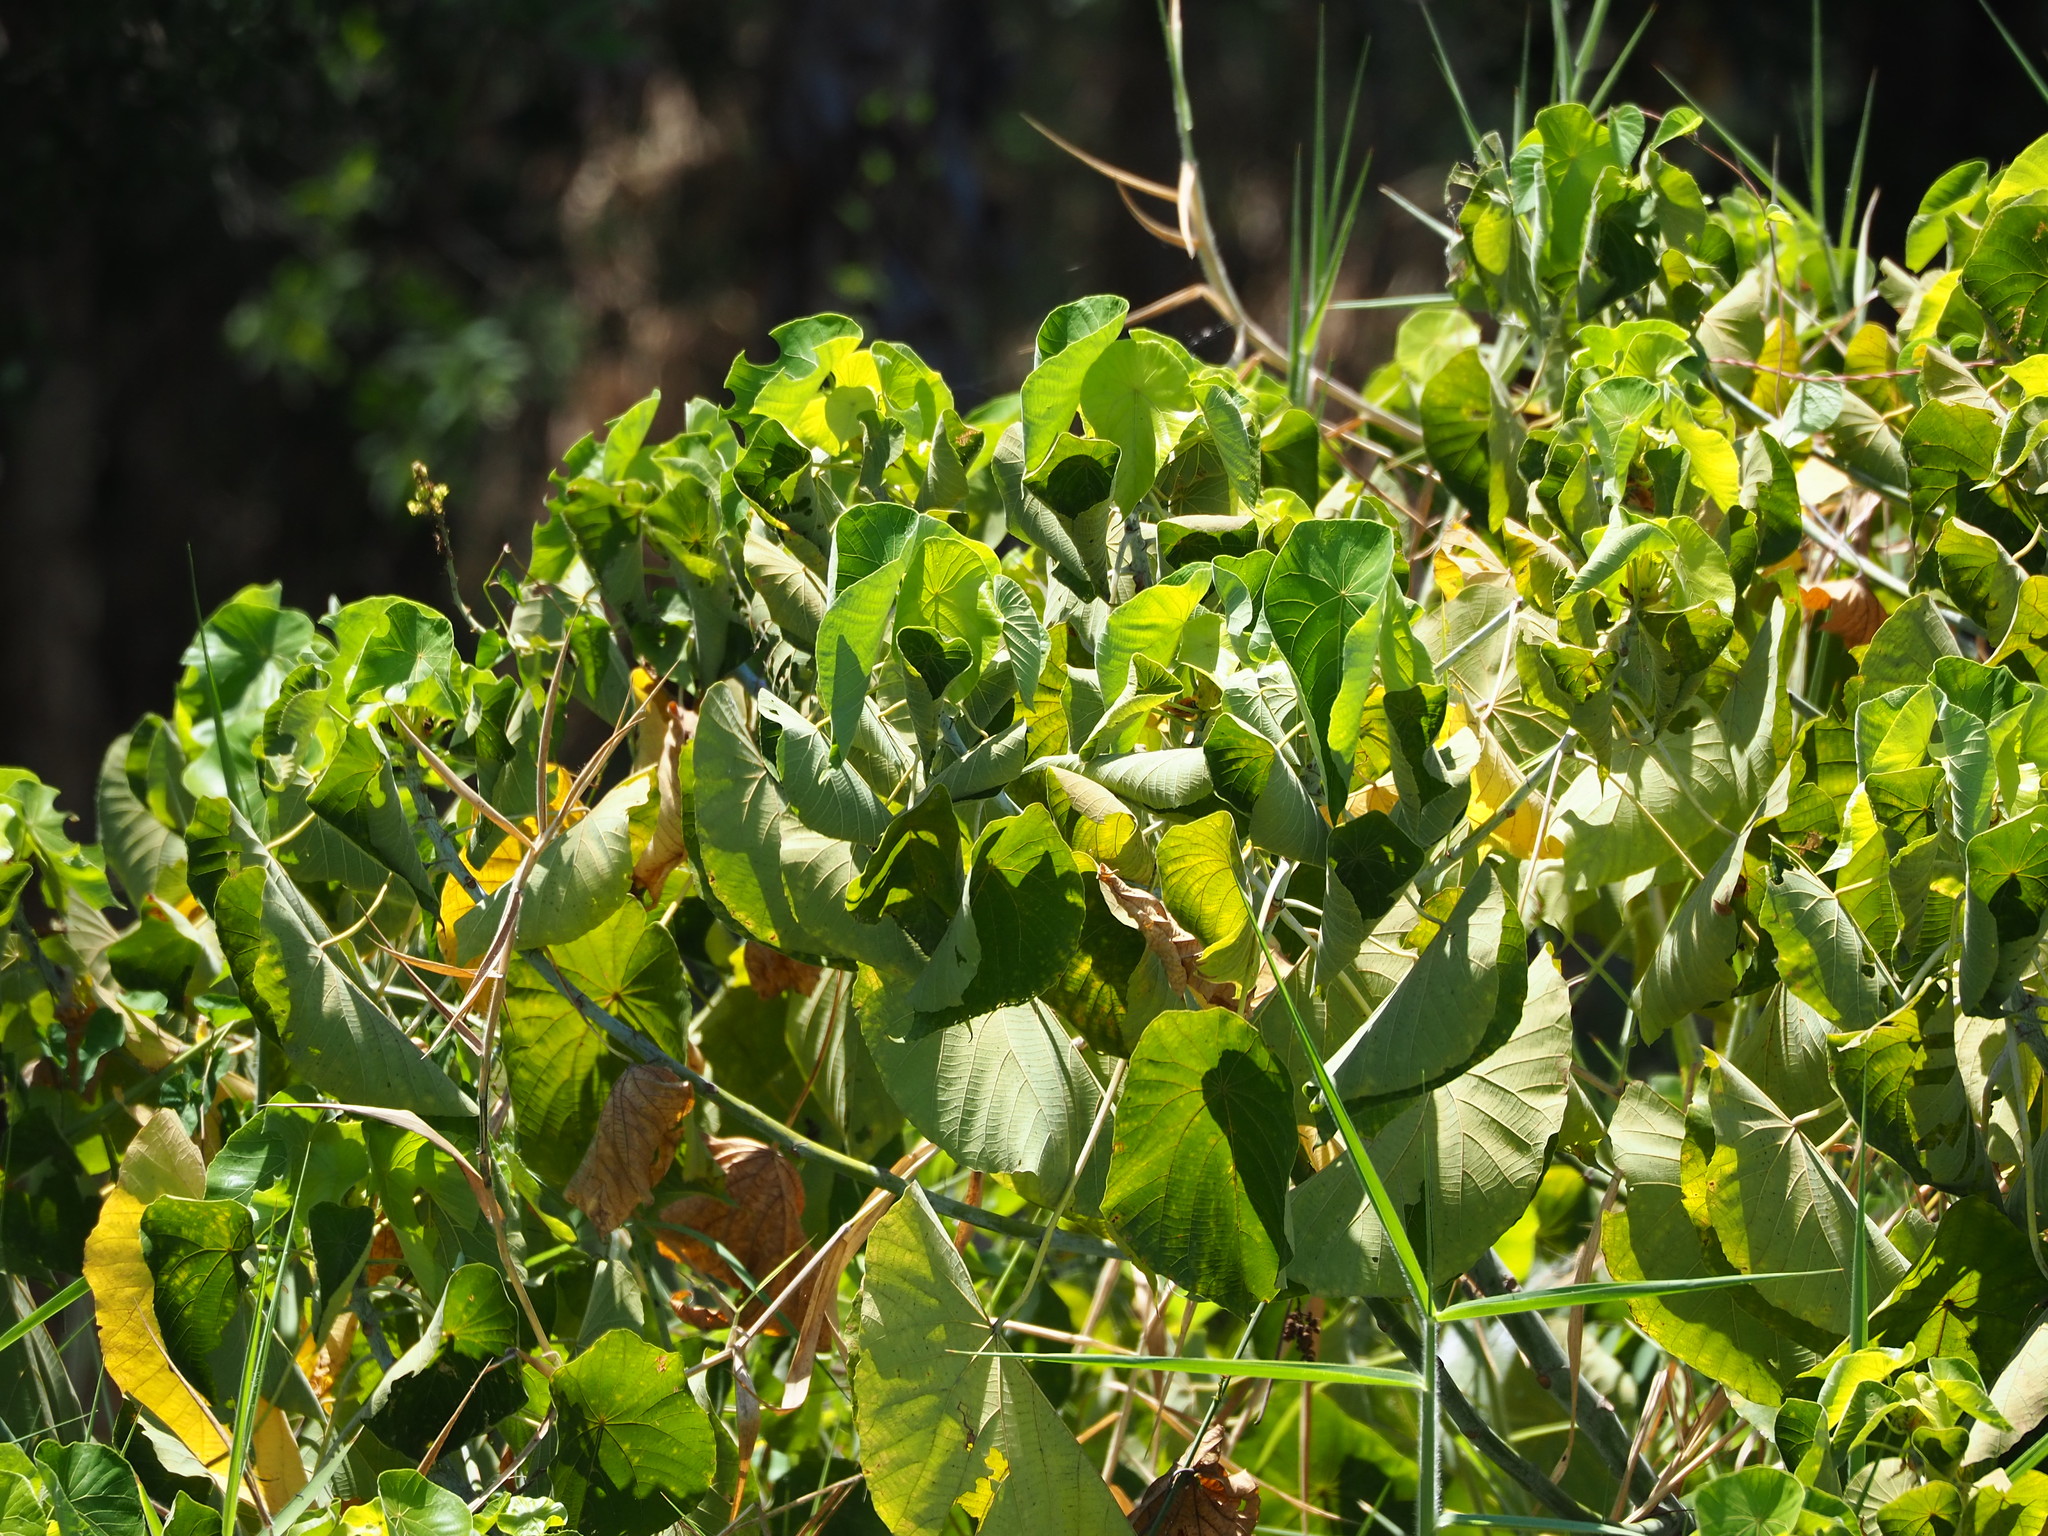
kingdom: Plantae
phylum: Tracheophyta
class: Magnoliopsida
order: Malpighiales
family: Euphorbiaceae
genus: Macaranga
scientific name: Macaranga tanarius
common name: Parasol leaf tree
